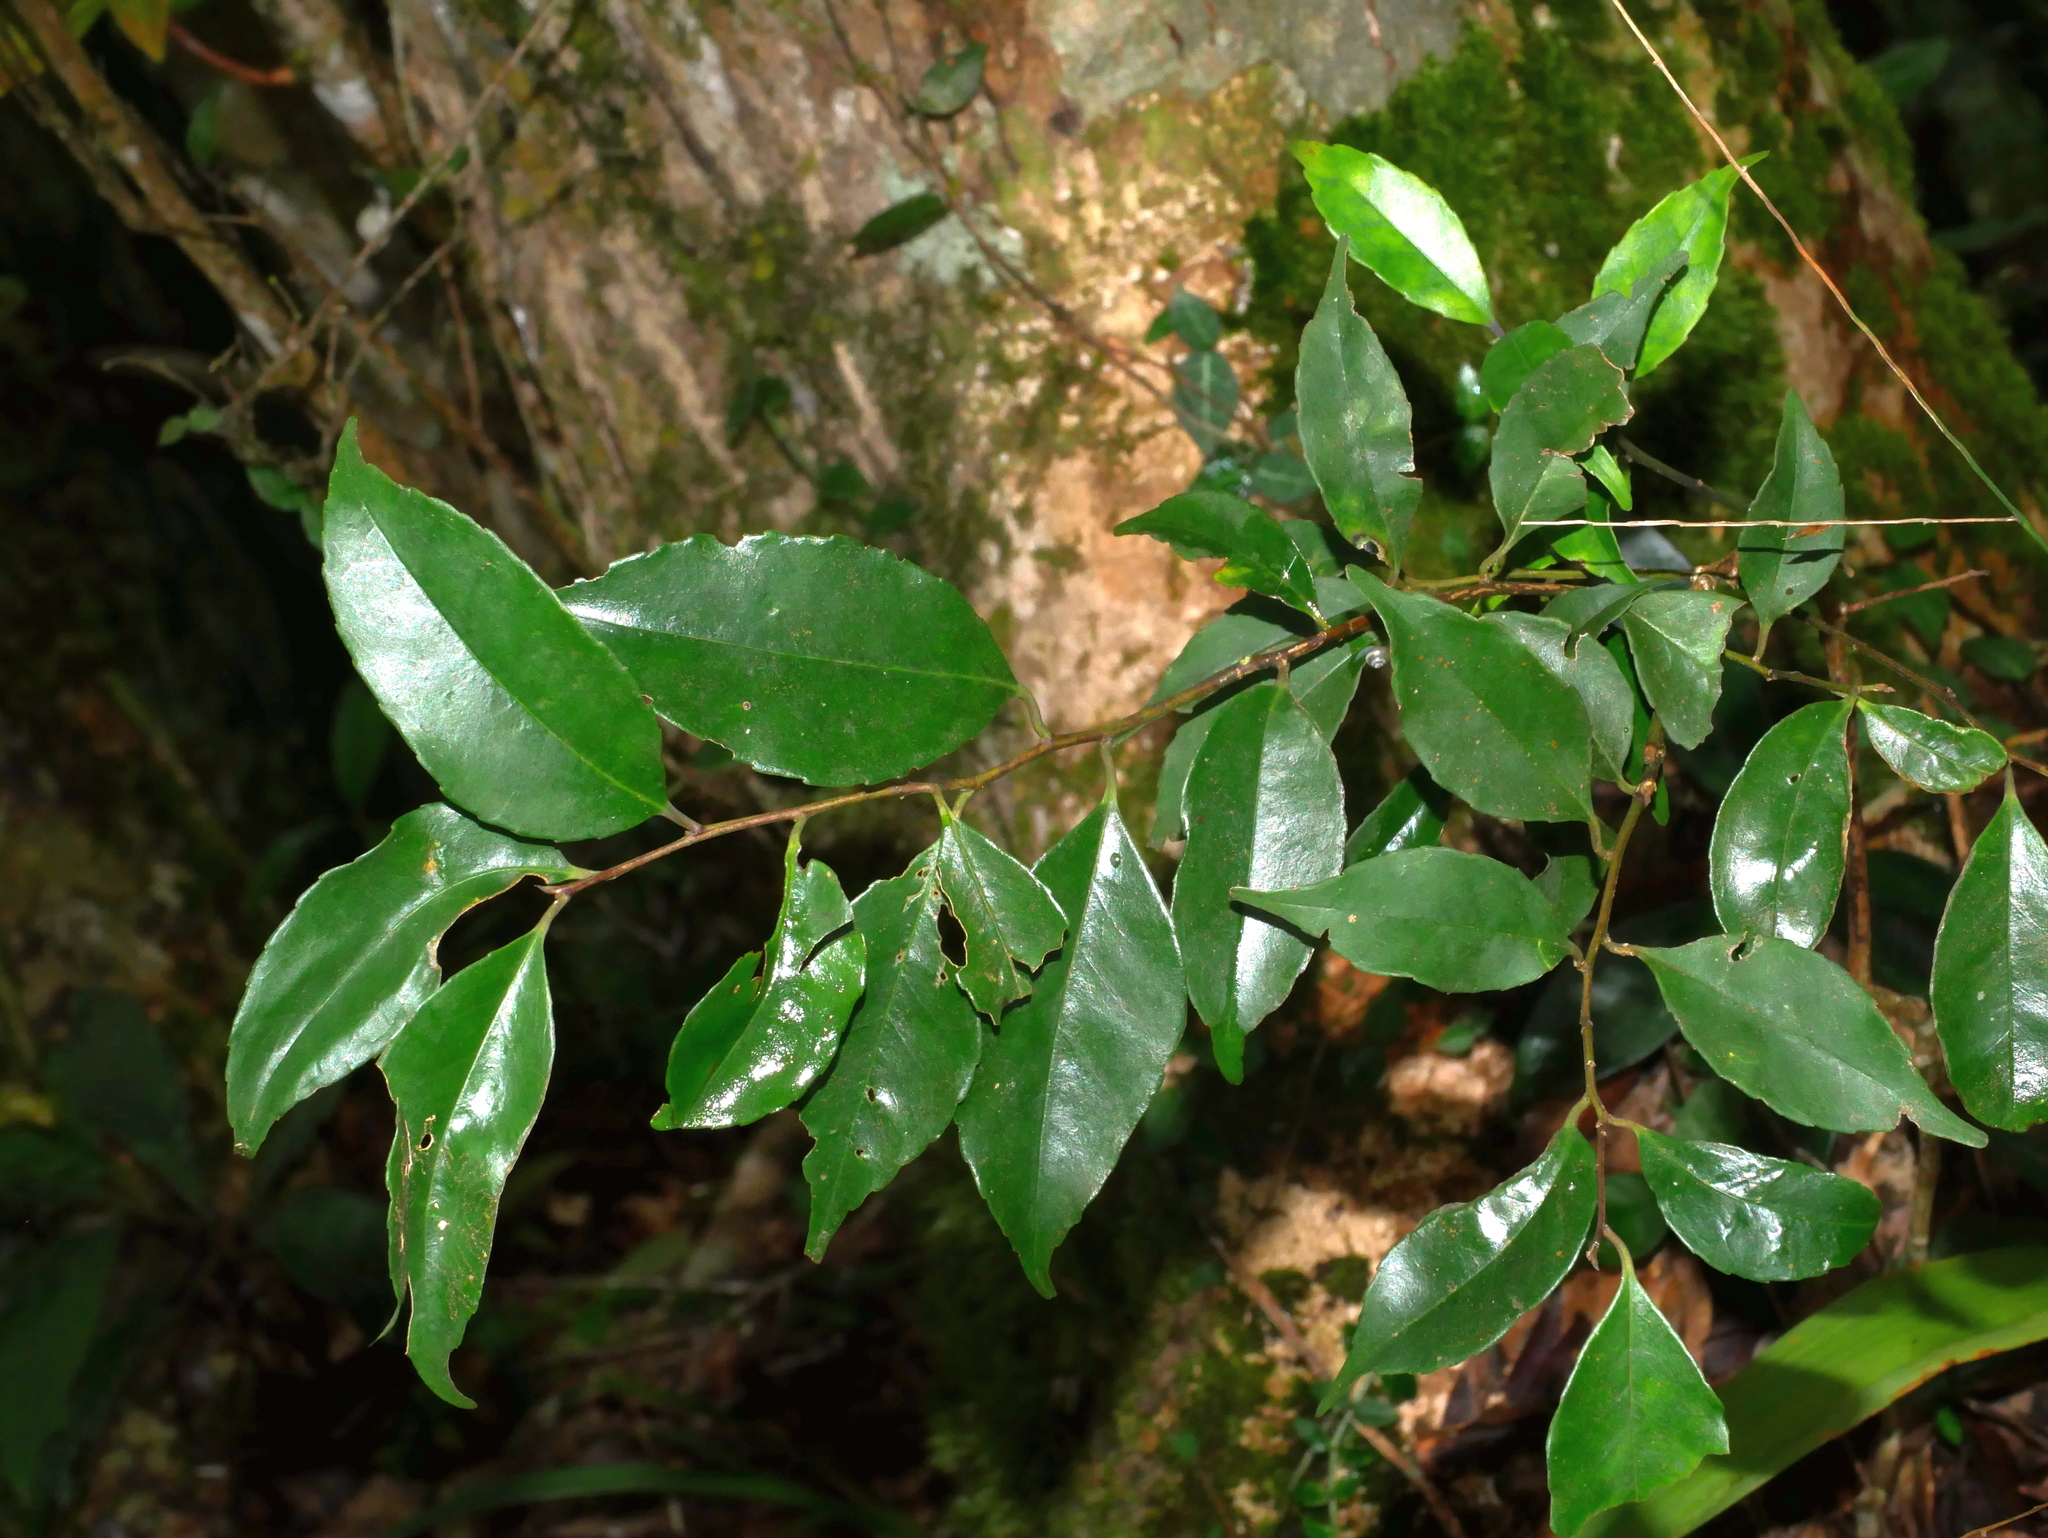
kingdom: Plantae
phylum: Tracheophyta
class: Magnoliopsida
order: Aquifoliales
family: Aquifoliaceae
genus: Ilex
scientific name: Ilex ficoidea
